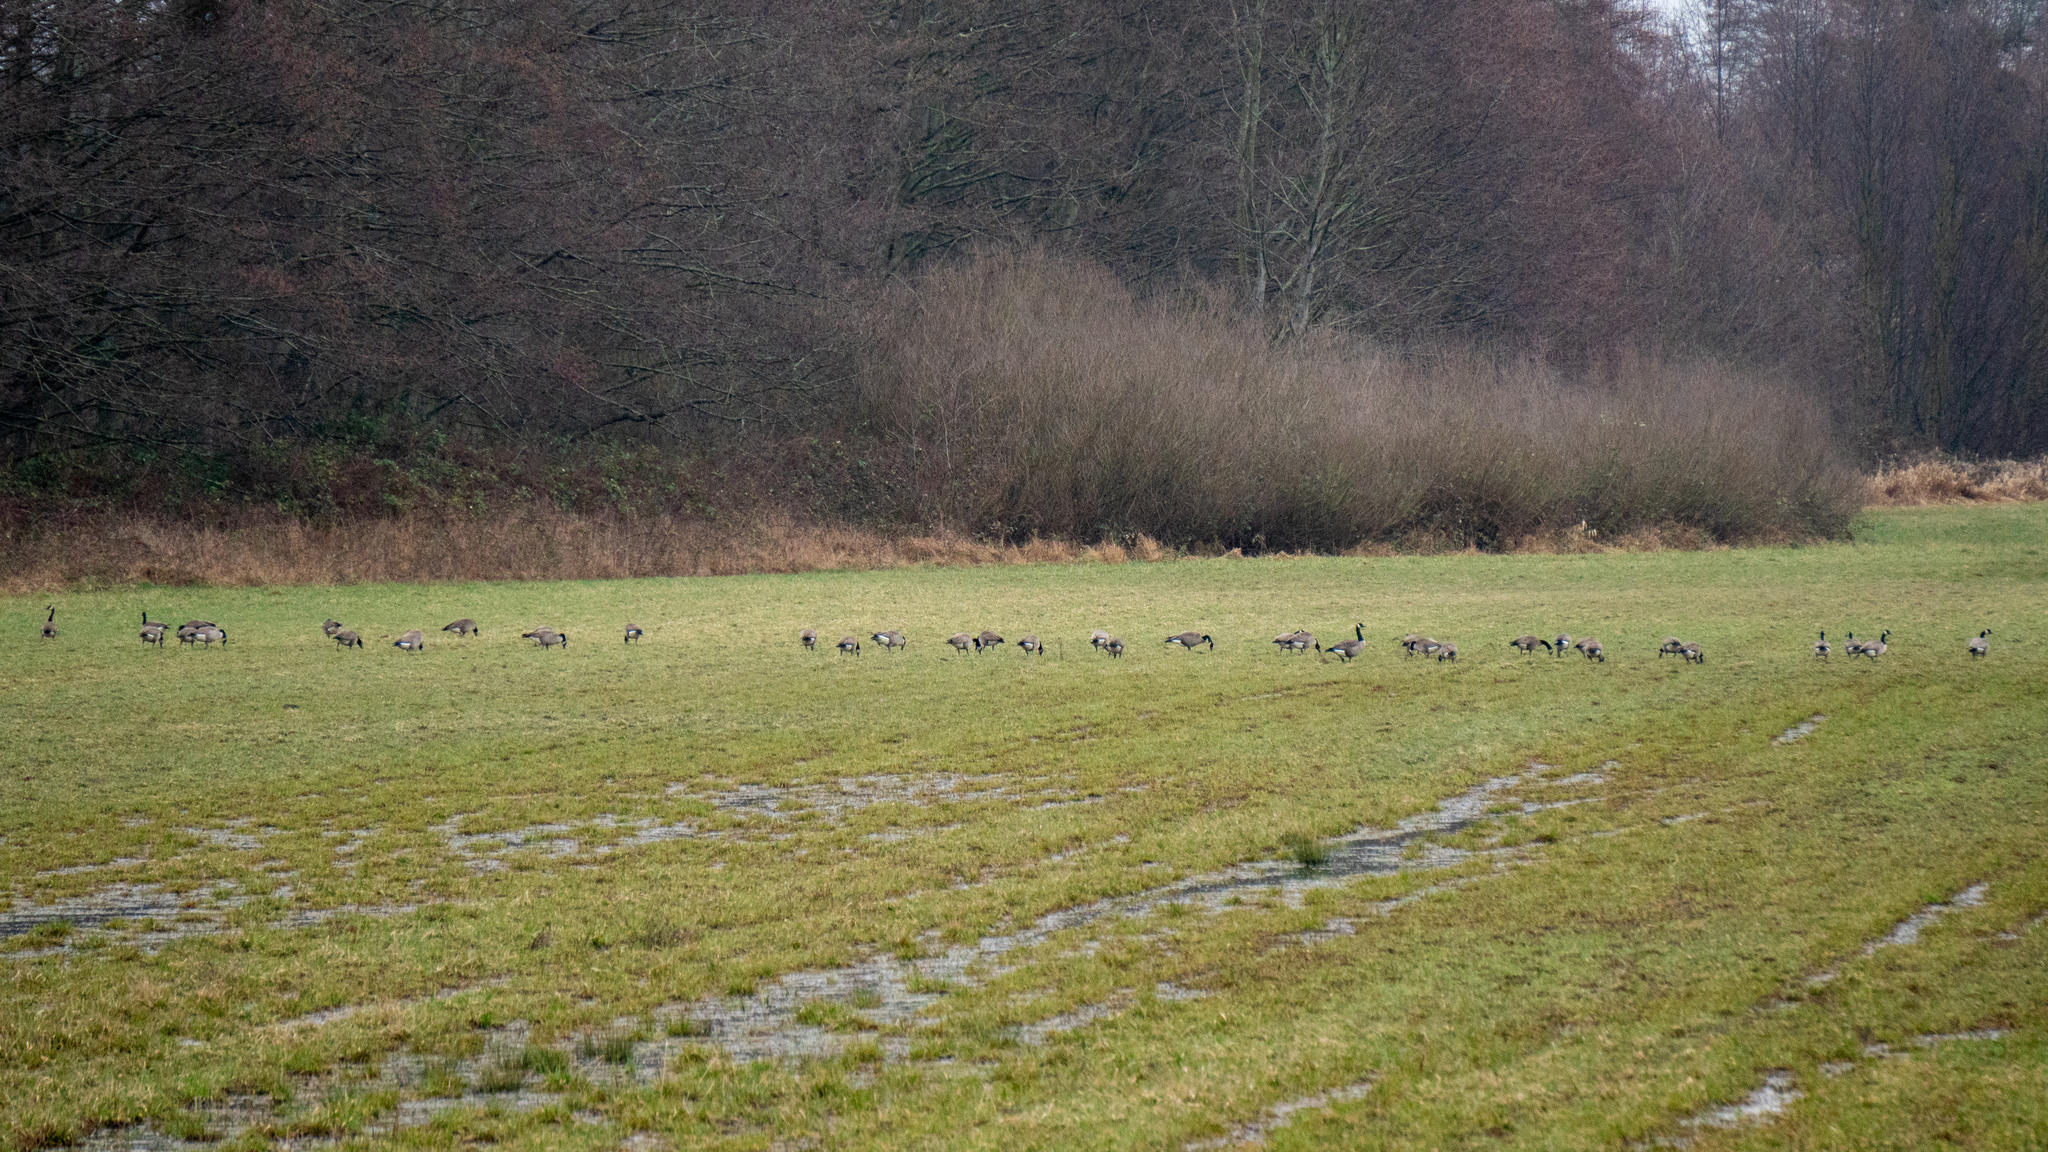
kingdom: Animalia
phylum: Chordata
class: Aves
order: Anseriformes
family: Anatidae
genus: Branta
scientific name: Branta canadensis
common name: Canada goose
